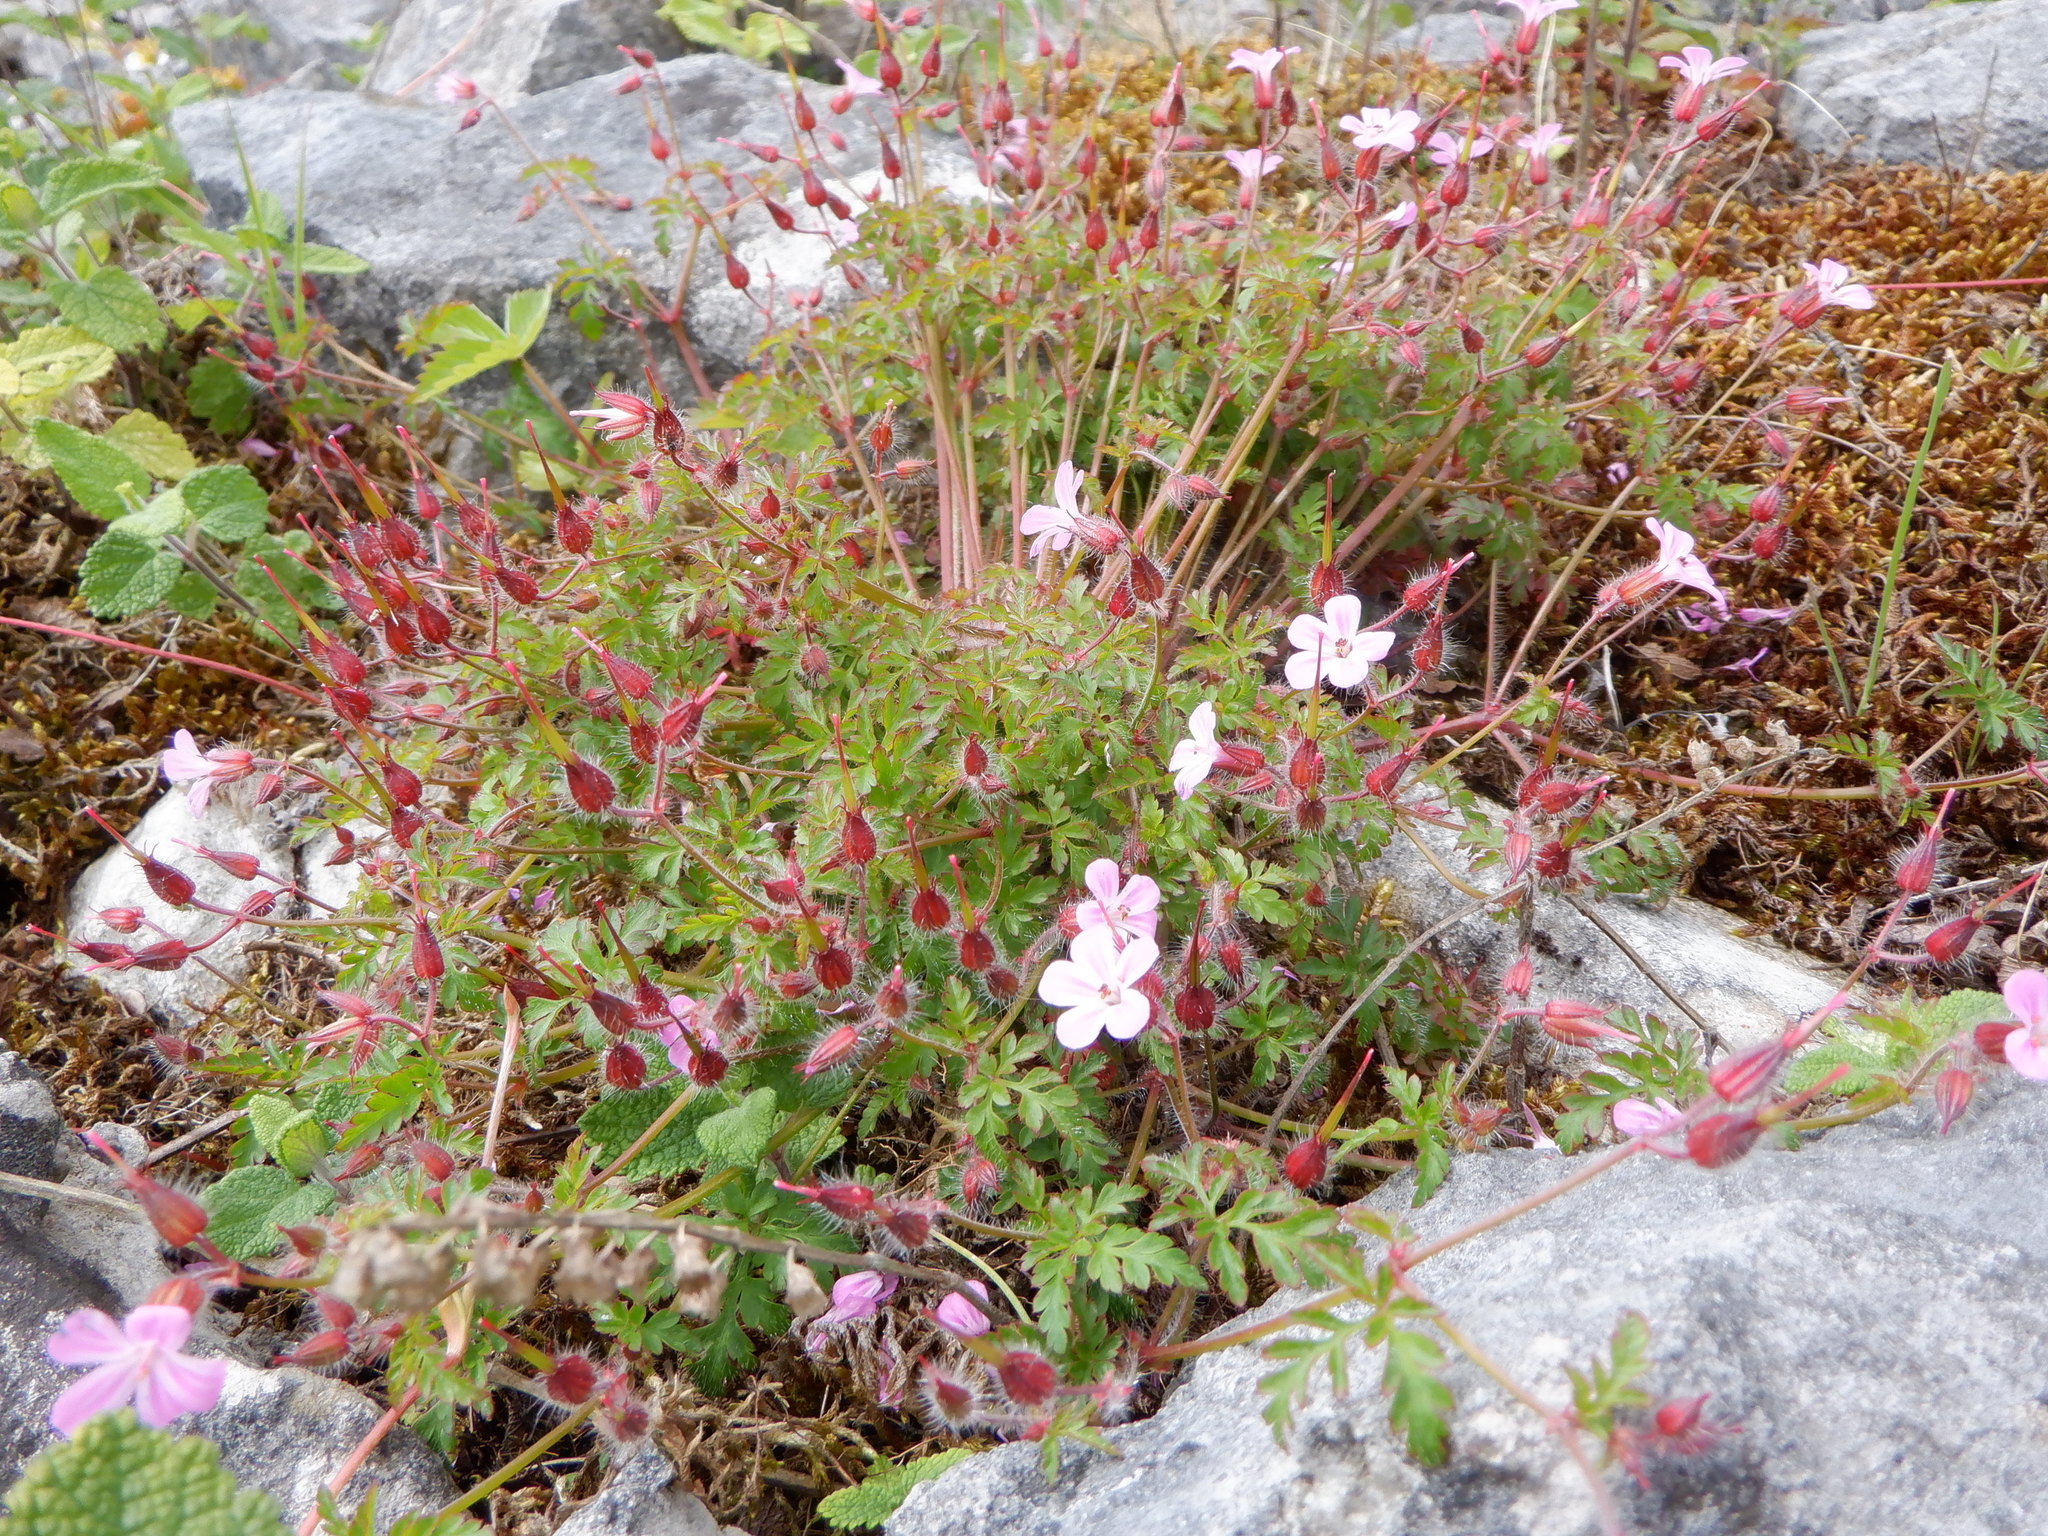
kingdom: Plantae
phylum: Tracheophyta
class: Magnoliopsida
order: Geraniales
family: Geraniaceae
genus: Geranium
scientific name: Geranium robertianum
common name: Herb-robert
